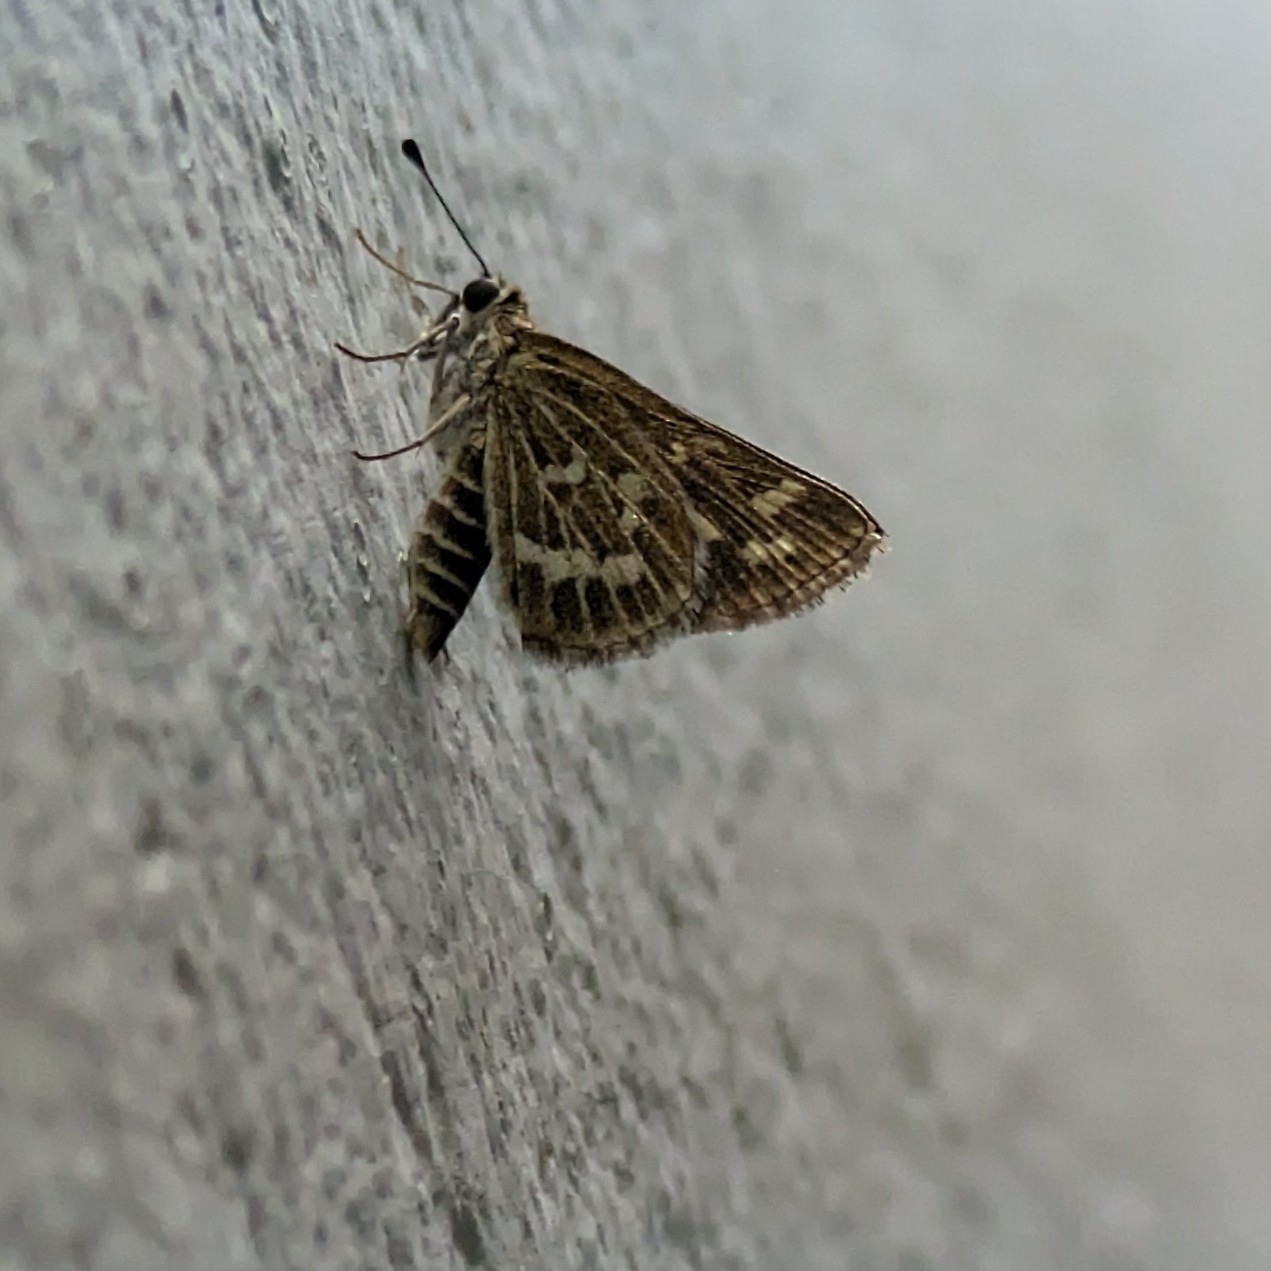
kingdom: Animalia
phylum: Arthropoda
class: Insecta
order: Lepidoptera
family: Hesperiidae
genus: Taractrocera
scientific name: Taractrocera maevius
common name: Common grass-dart
